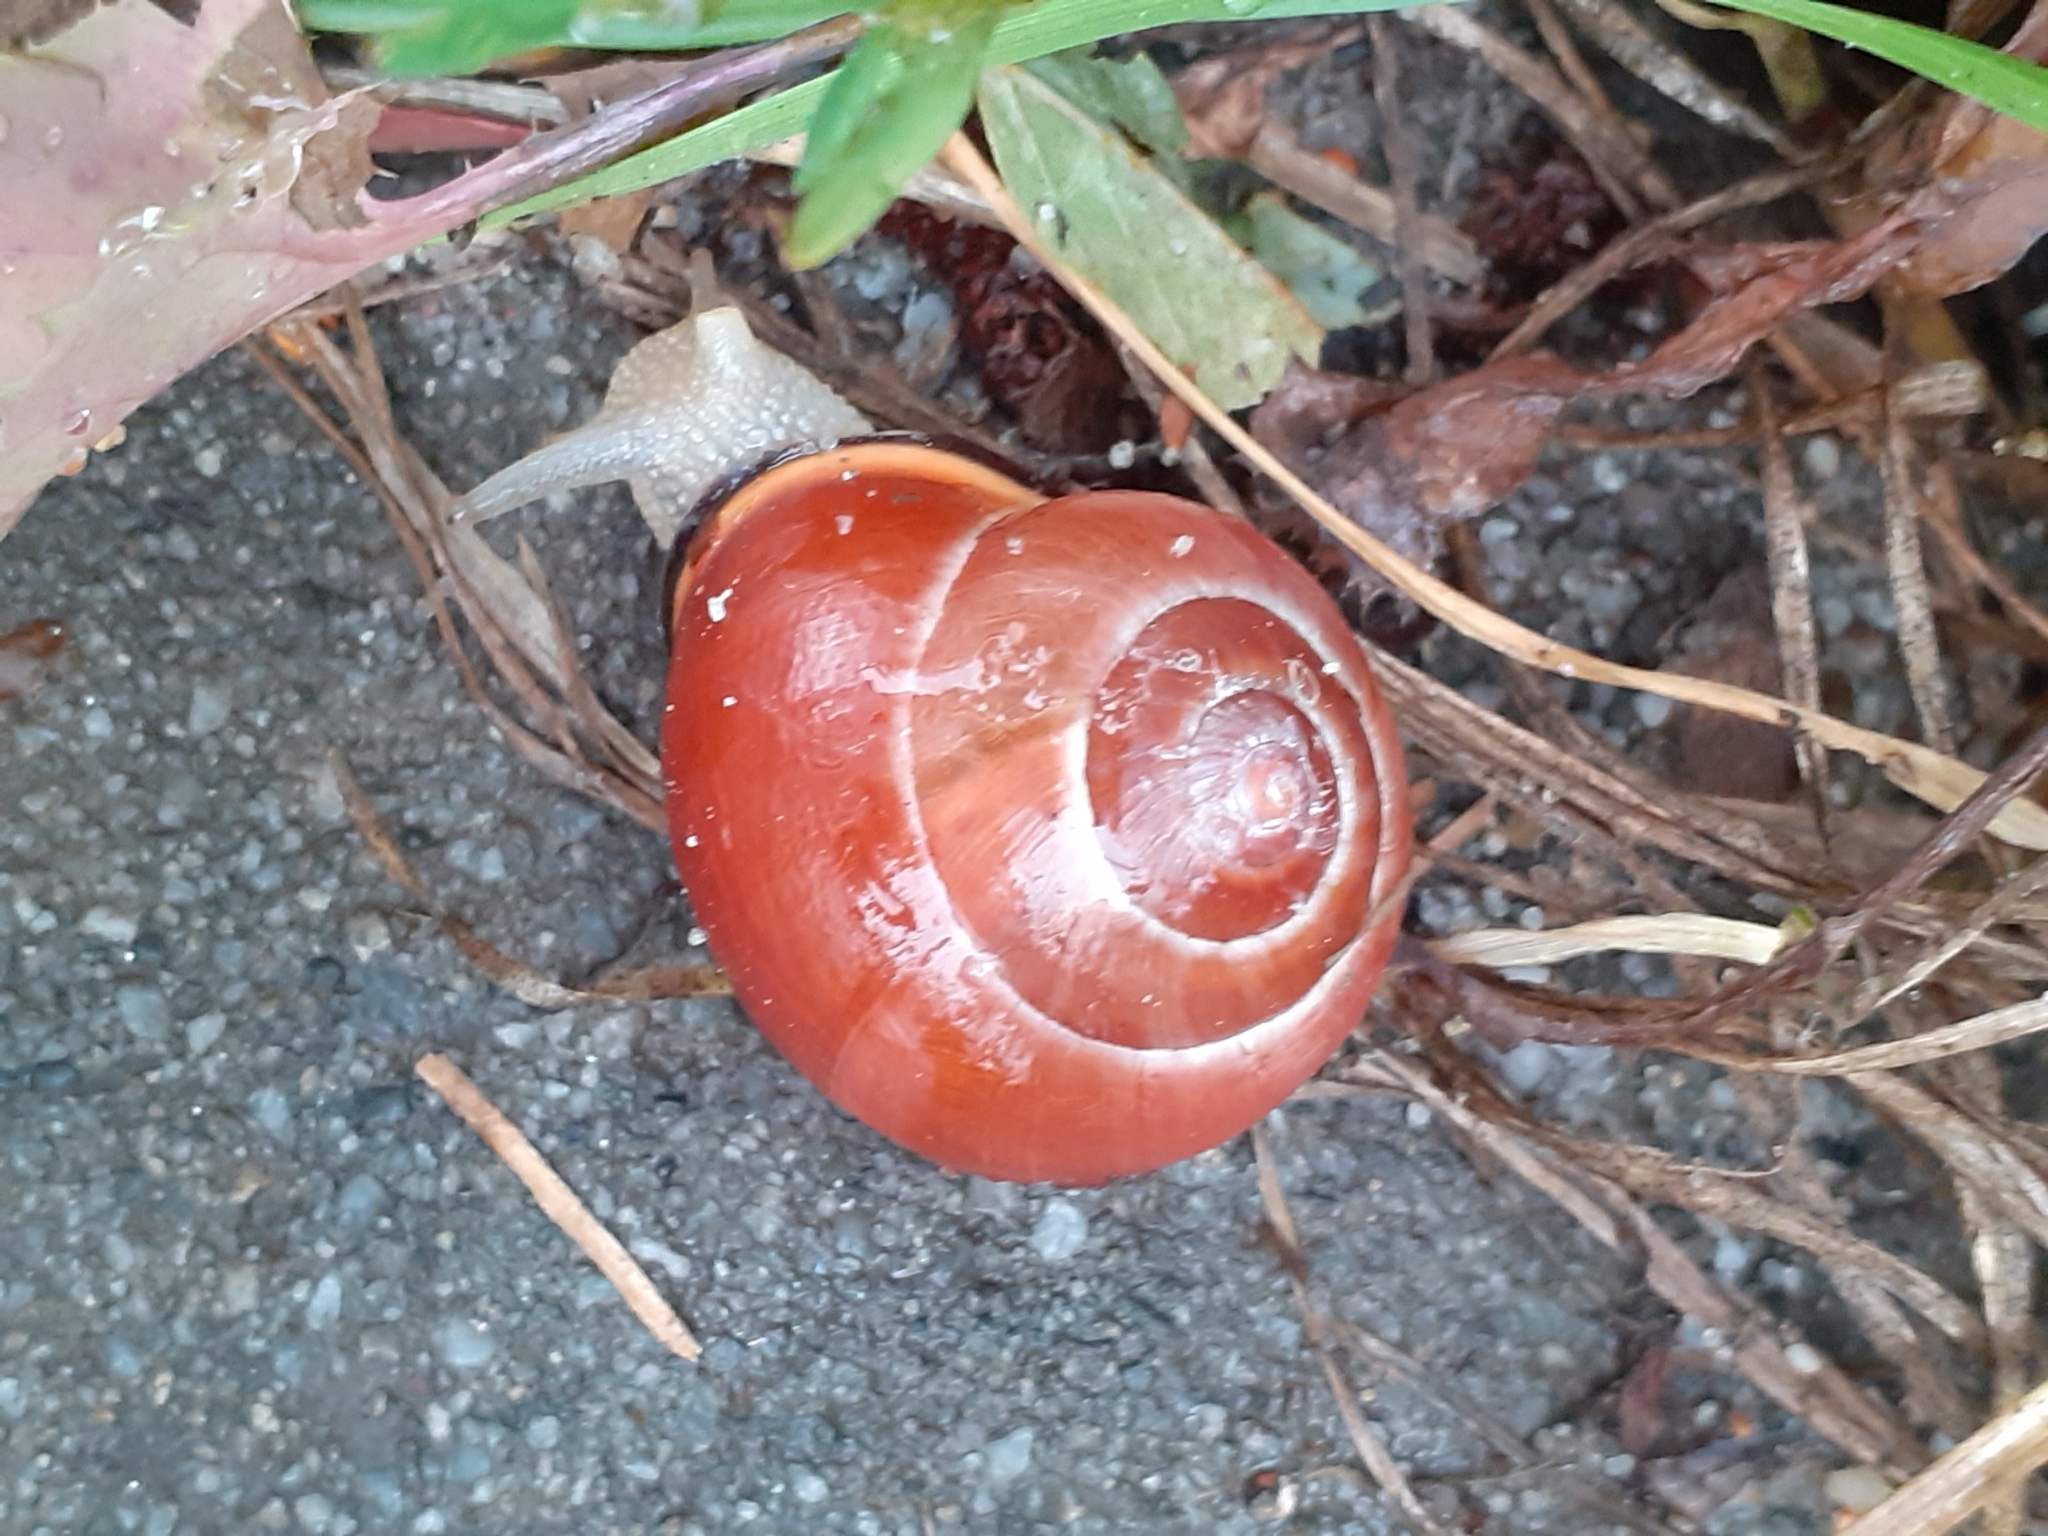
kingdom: Animalia
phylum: Mollusca
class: Gastropoda
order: Stylommatophora
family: Helicidae
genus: Cepaea
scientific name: Cepaea nemoralis
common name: Grovesnail
